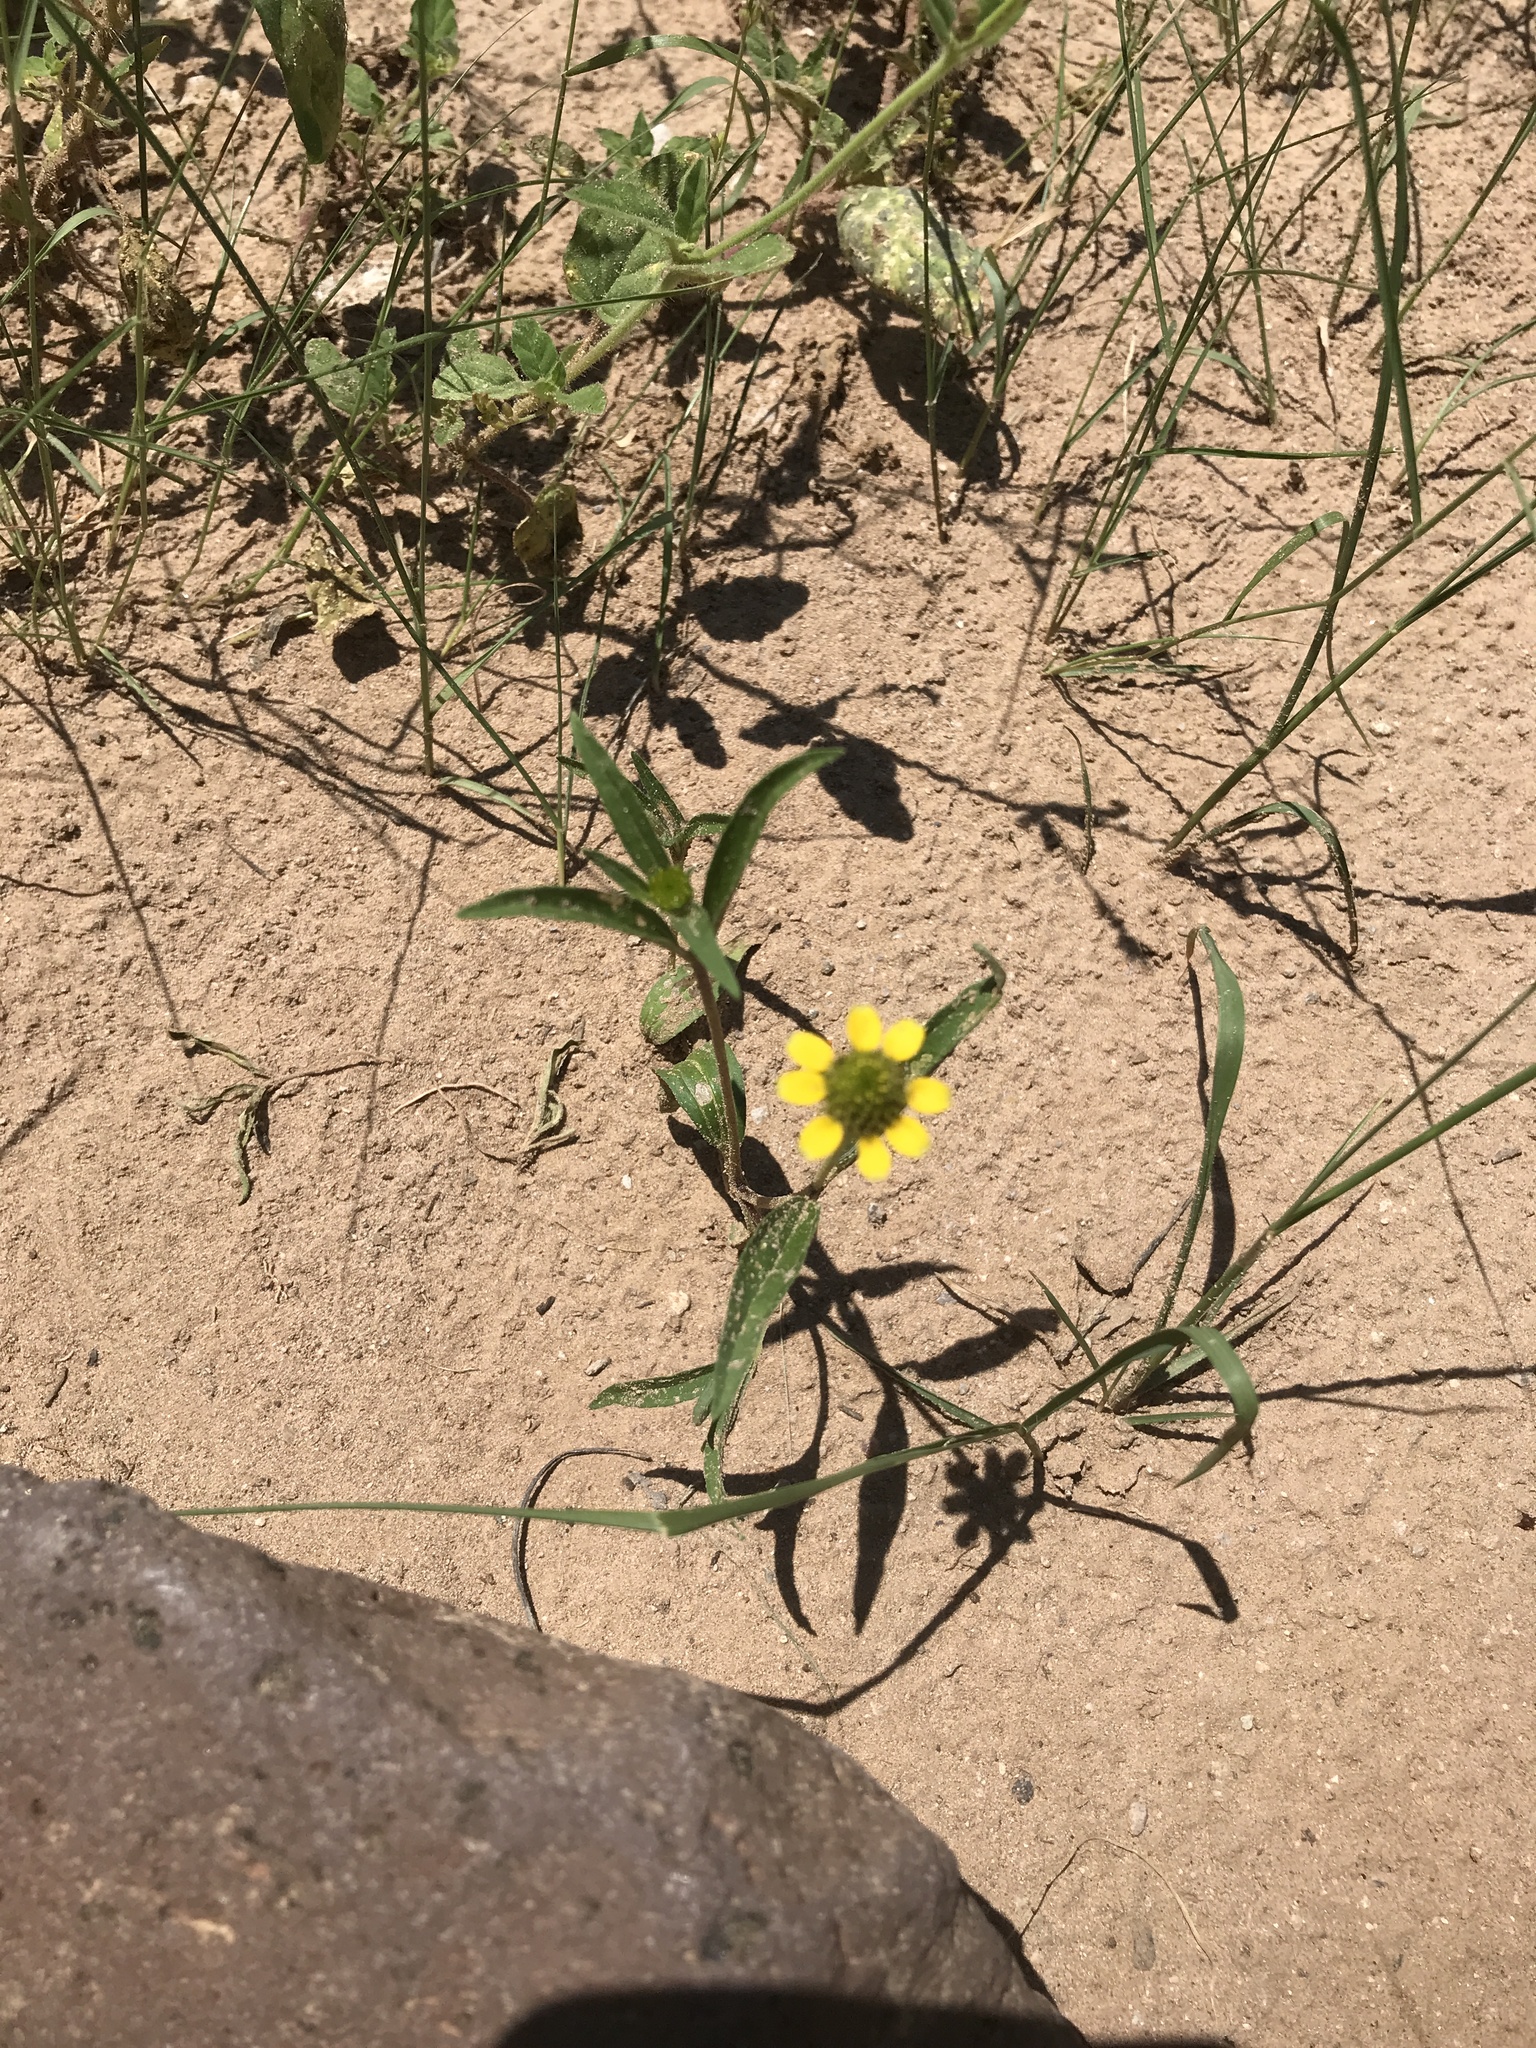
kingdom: Plantae
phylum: Tracheophyta
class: Magnoliopsida
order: Asterales
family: Asteraceae
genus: Sanvitalia
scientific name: Sanvitalia abertii
